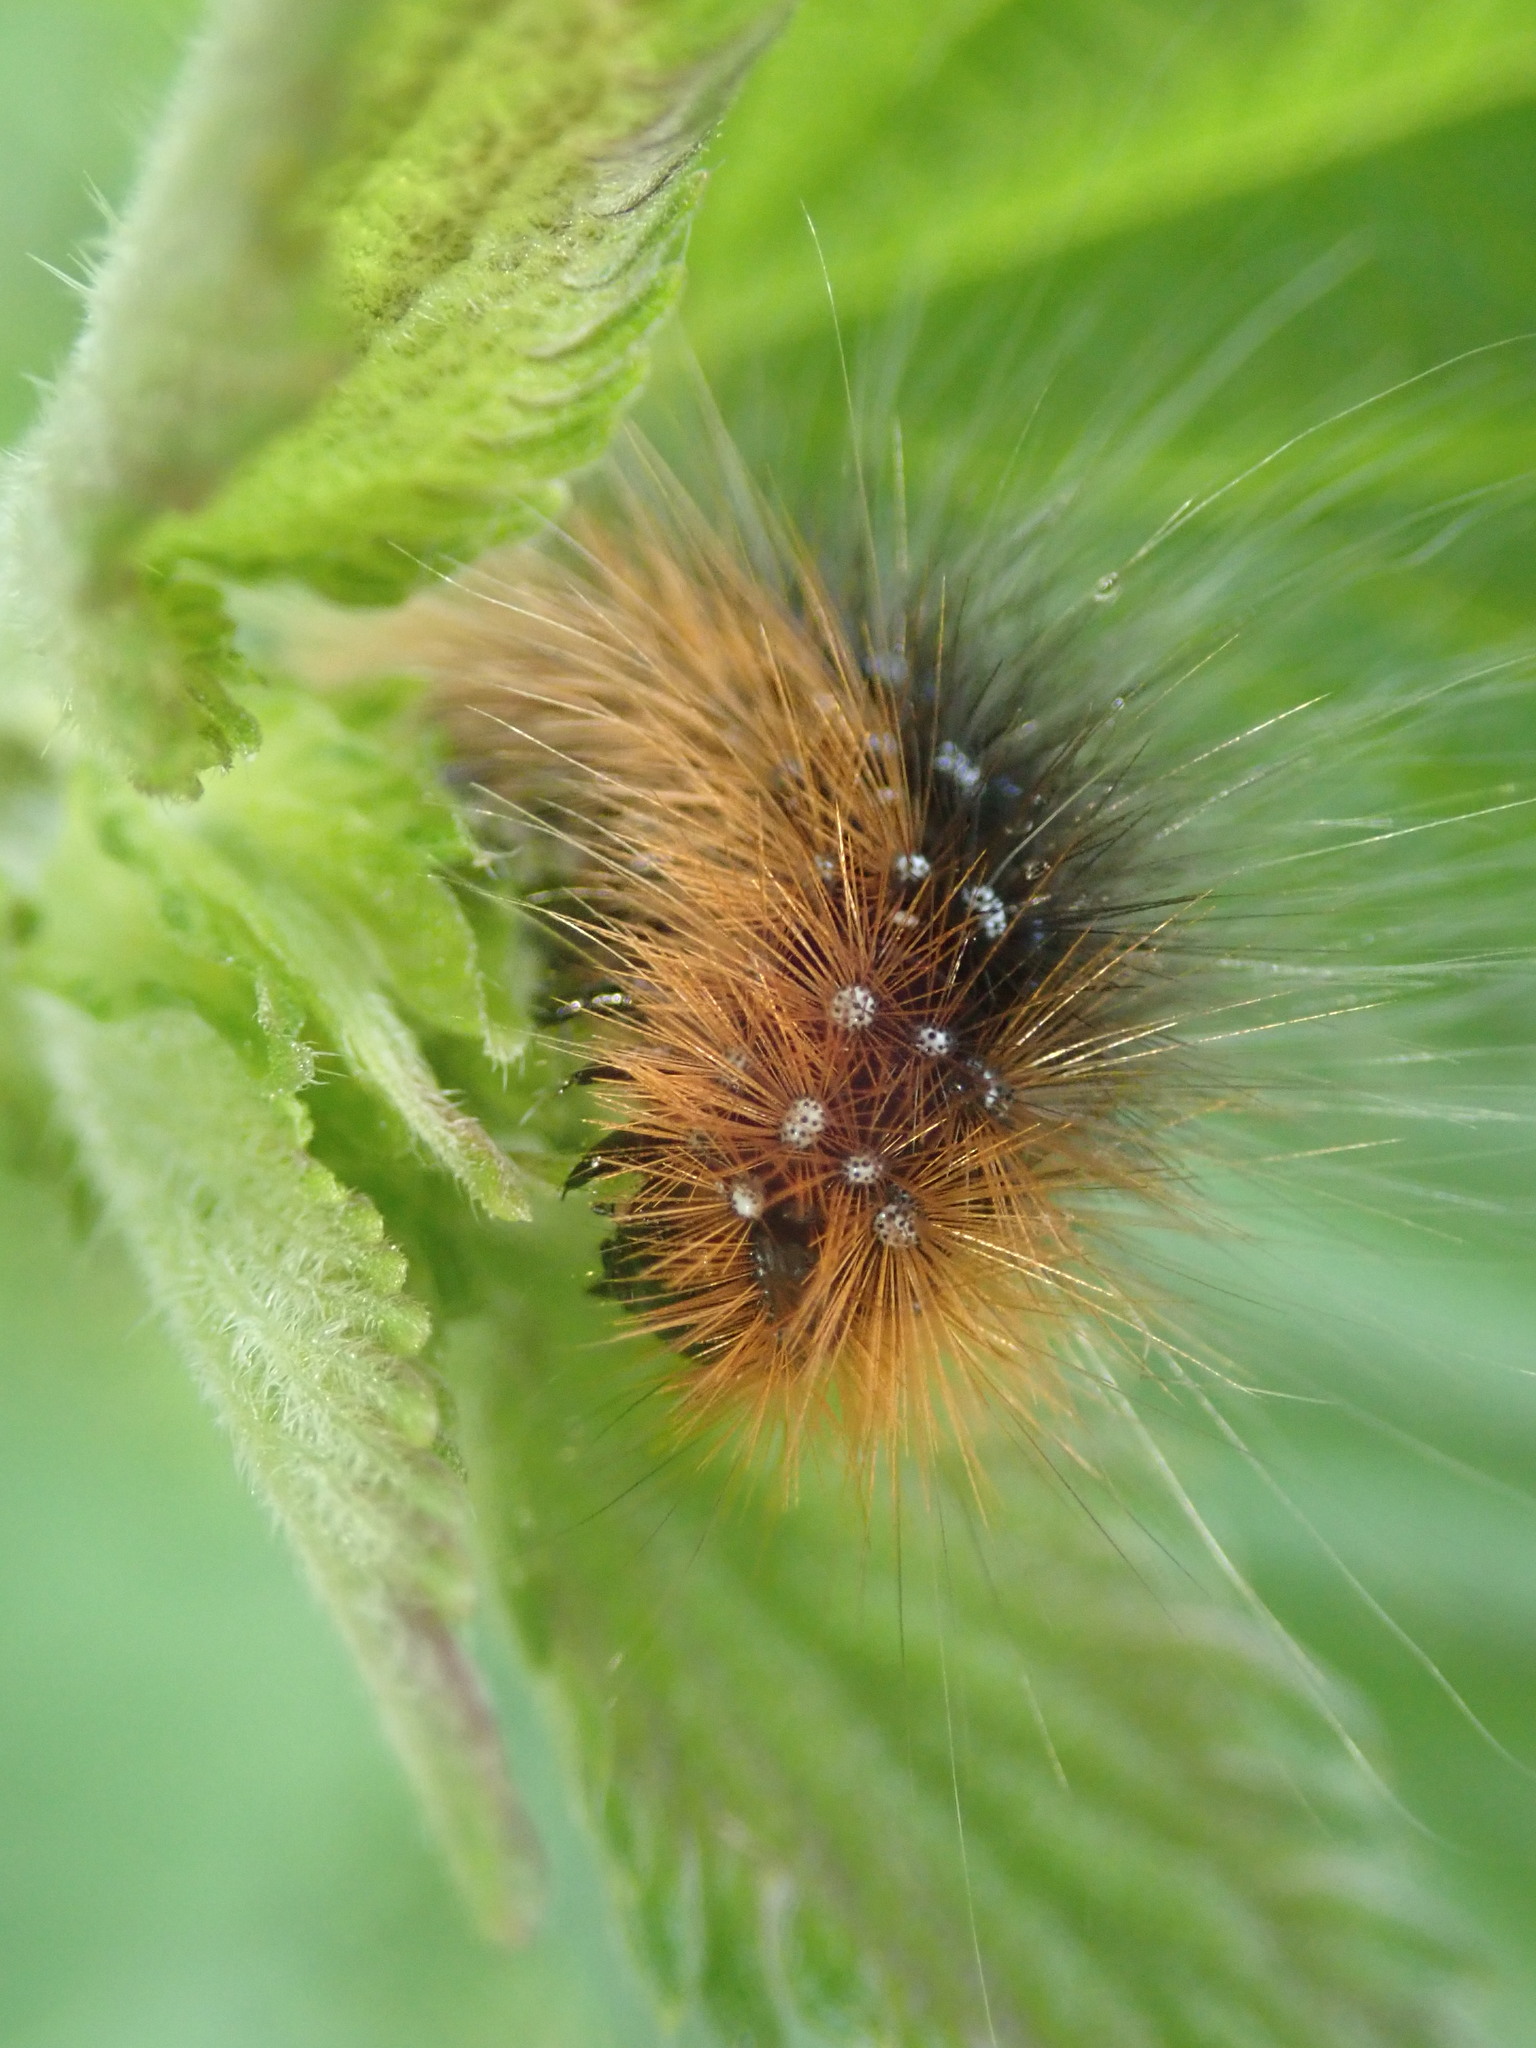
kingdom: Animalia
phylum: Arthropoda
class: Insecta
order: Lepidoptera
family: Erebidae
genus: Arctia
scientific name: Arctia caja
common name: Garden tiger
